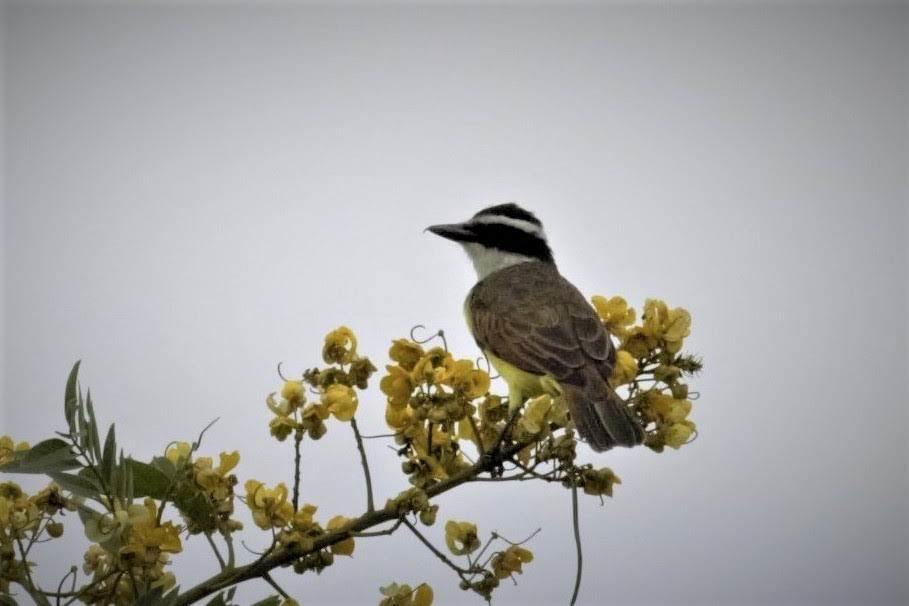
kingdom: Animalia
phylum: Chordata
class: Aves
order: Passeriformes
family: Tyrannidae
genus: Pitangus
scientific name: Pitangus sulphuratus
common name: Great kiskadee
